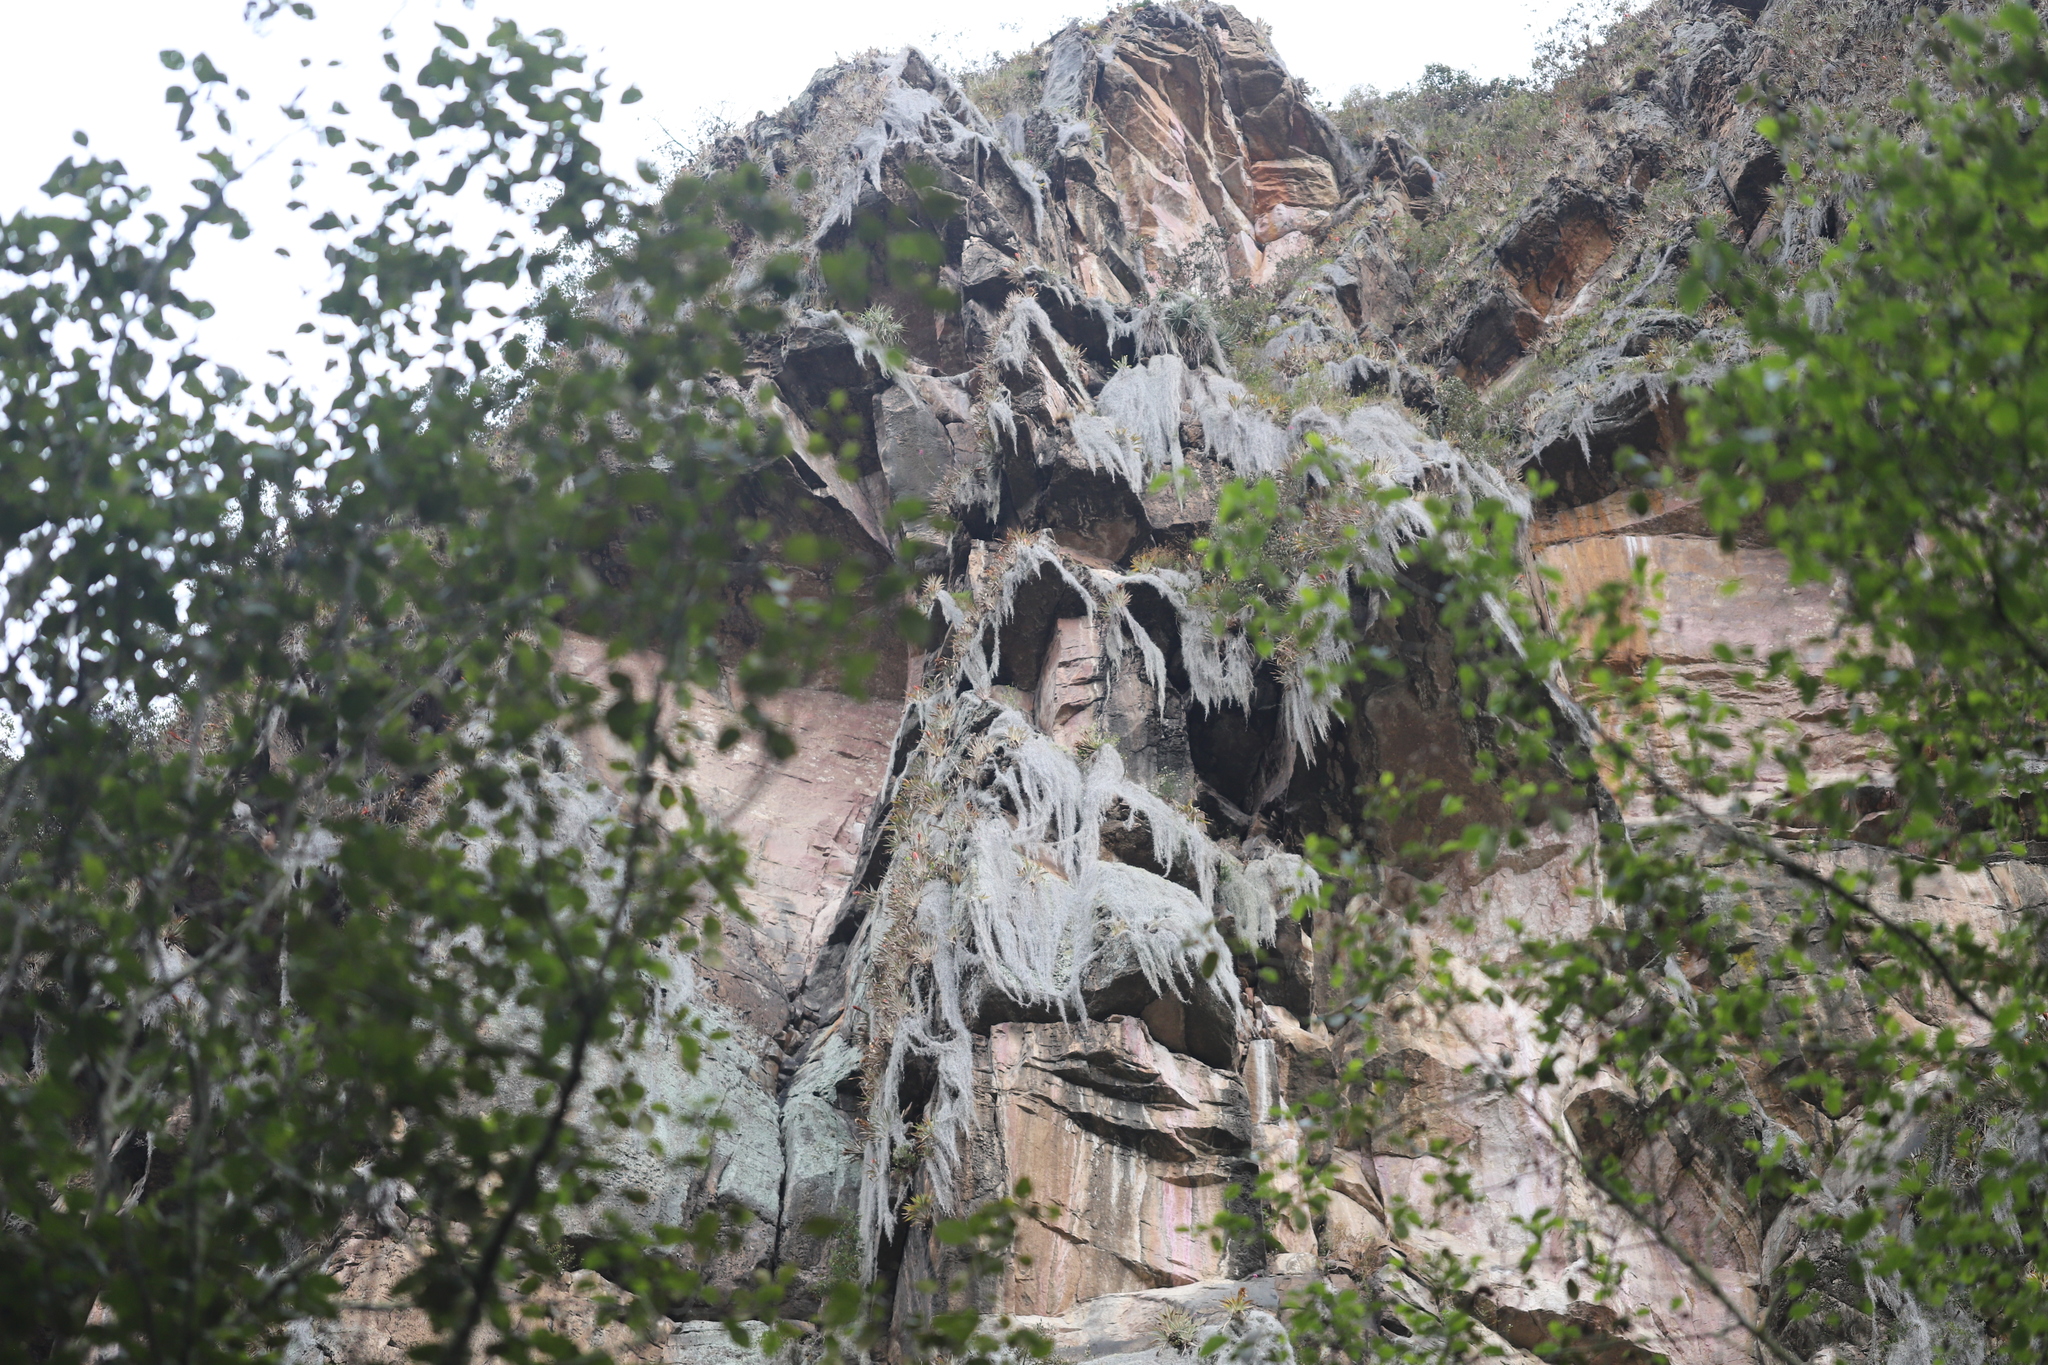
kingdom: Plantae
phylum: Tracheophyta
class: Liliopsida
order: Poales
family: Bromeliaceae
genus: Tillandsia
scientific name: Tillandsia usneoides
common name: Spanish moss
